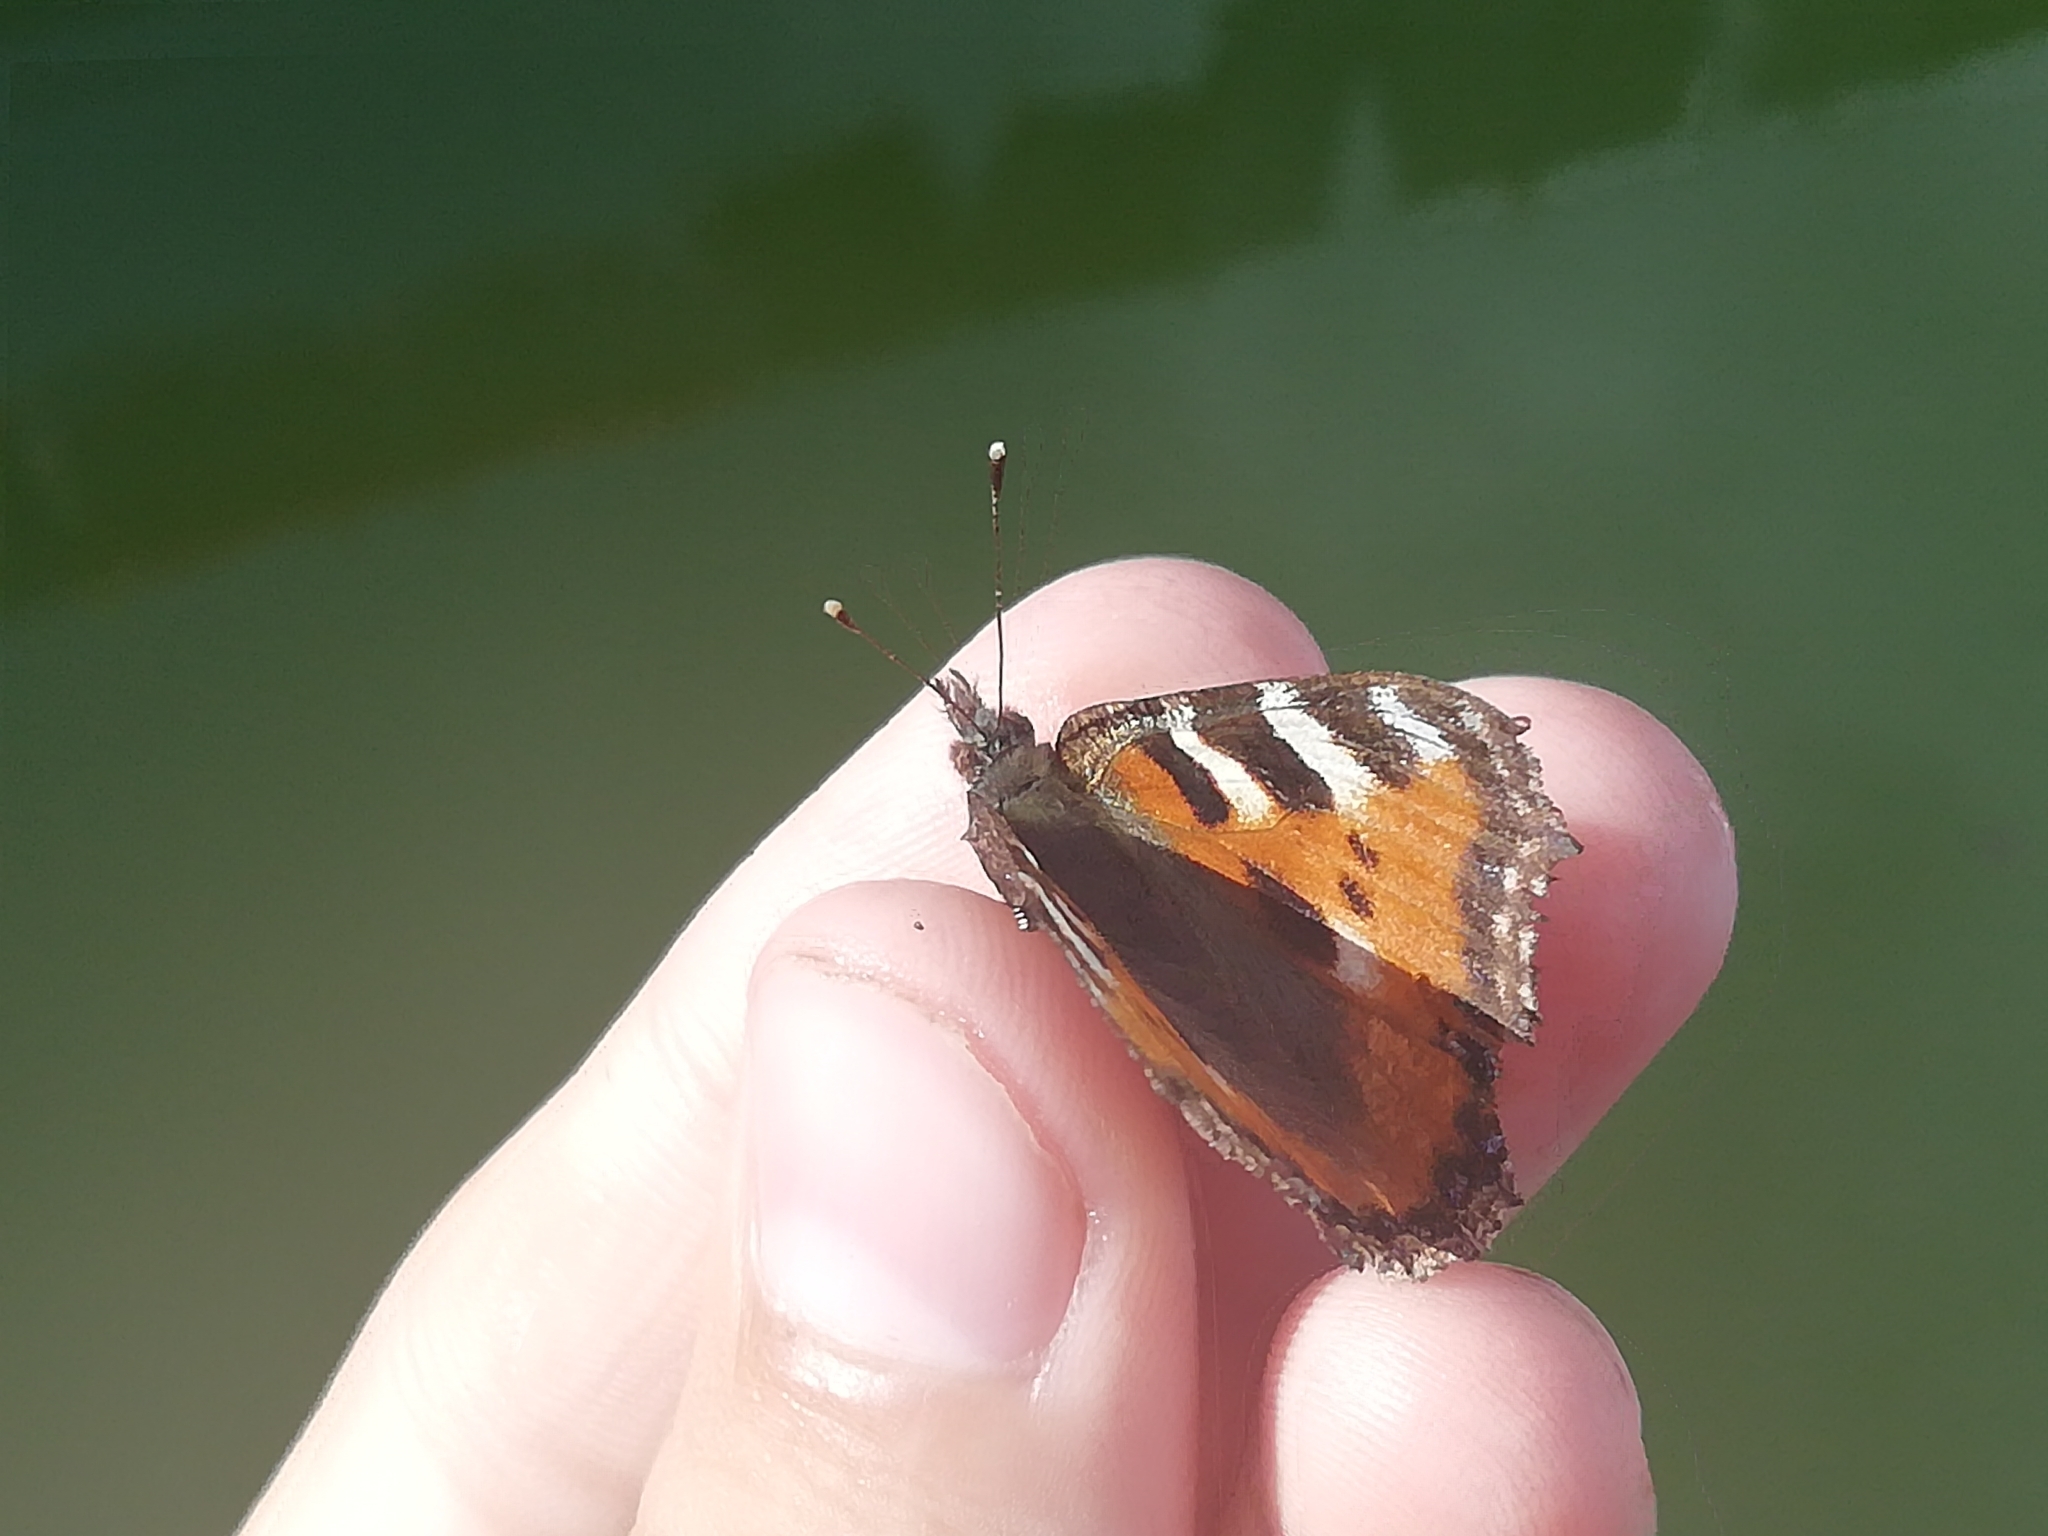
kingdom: Animalia
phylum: Arthropoda
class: Insecta
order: Lepidoptera
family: Nymphalidae
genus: Aglais
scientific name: Aglais urticae
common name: Small tortoiseshell
